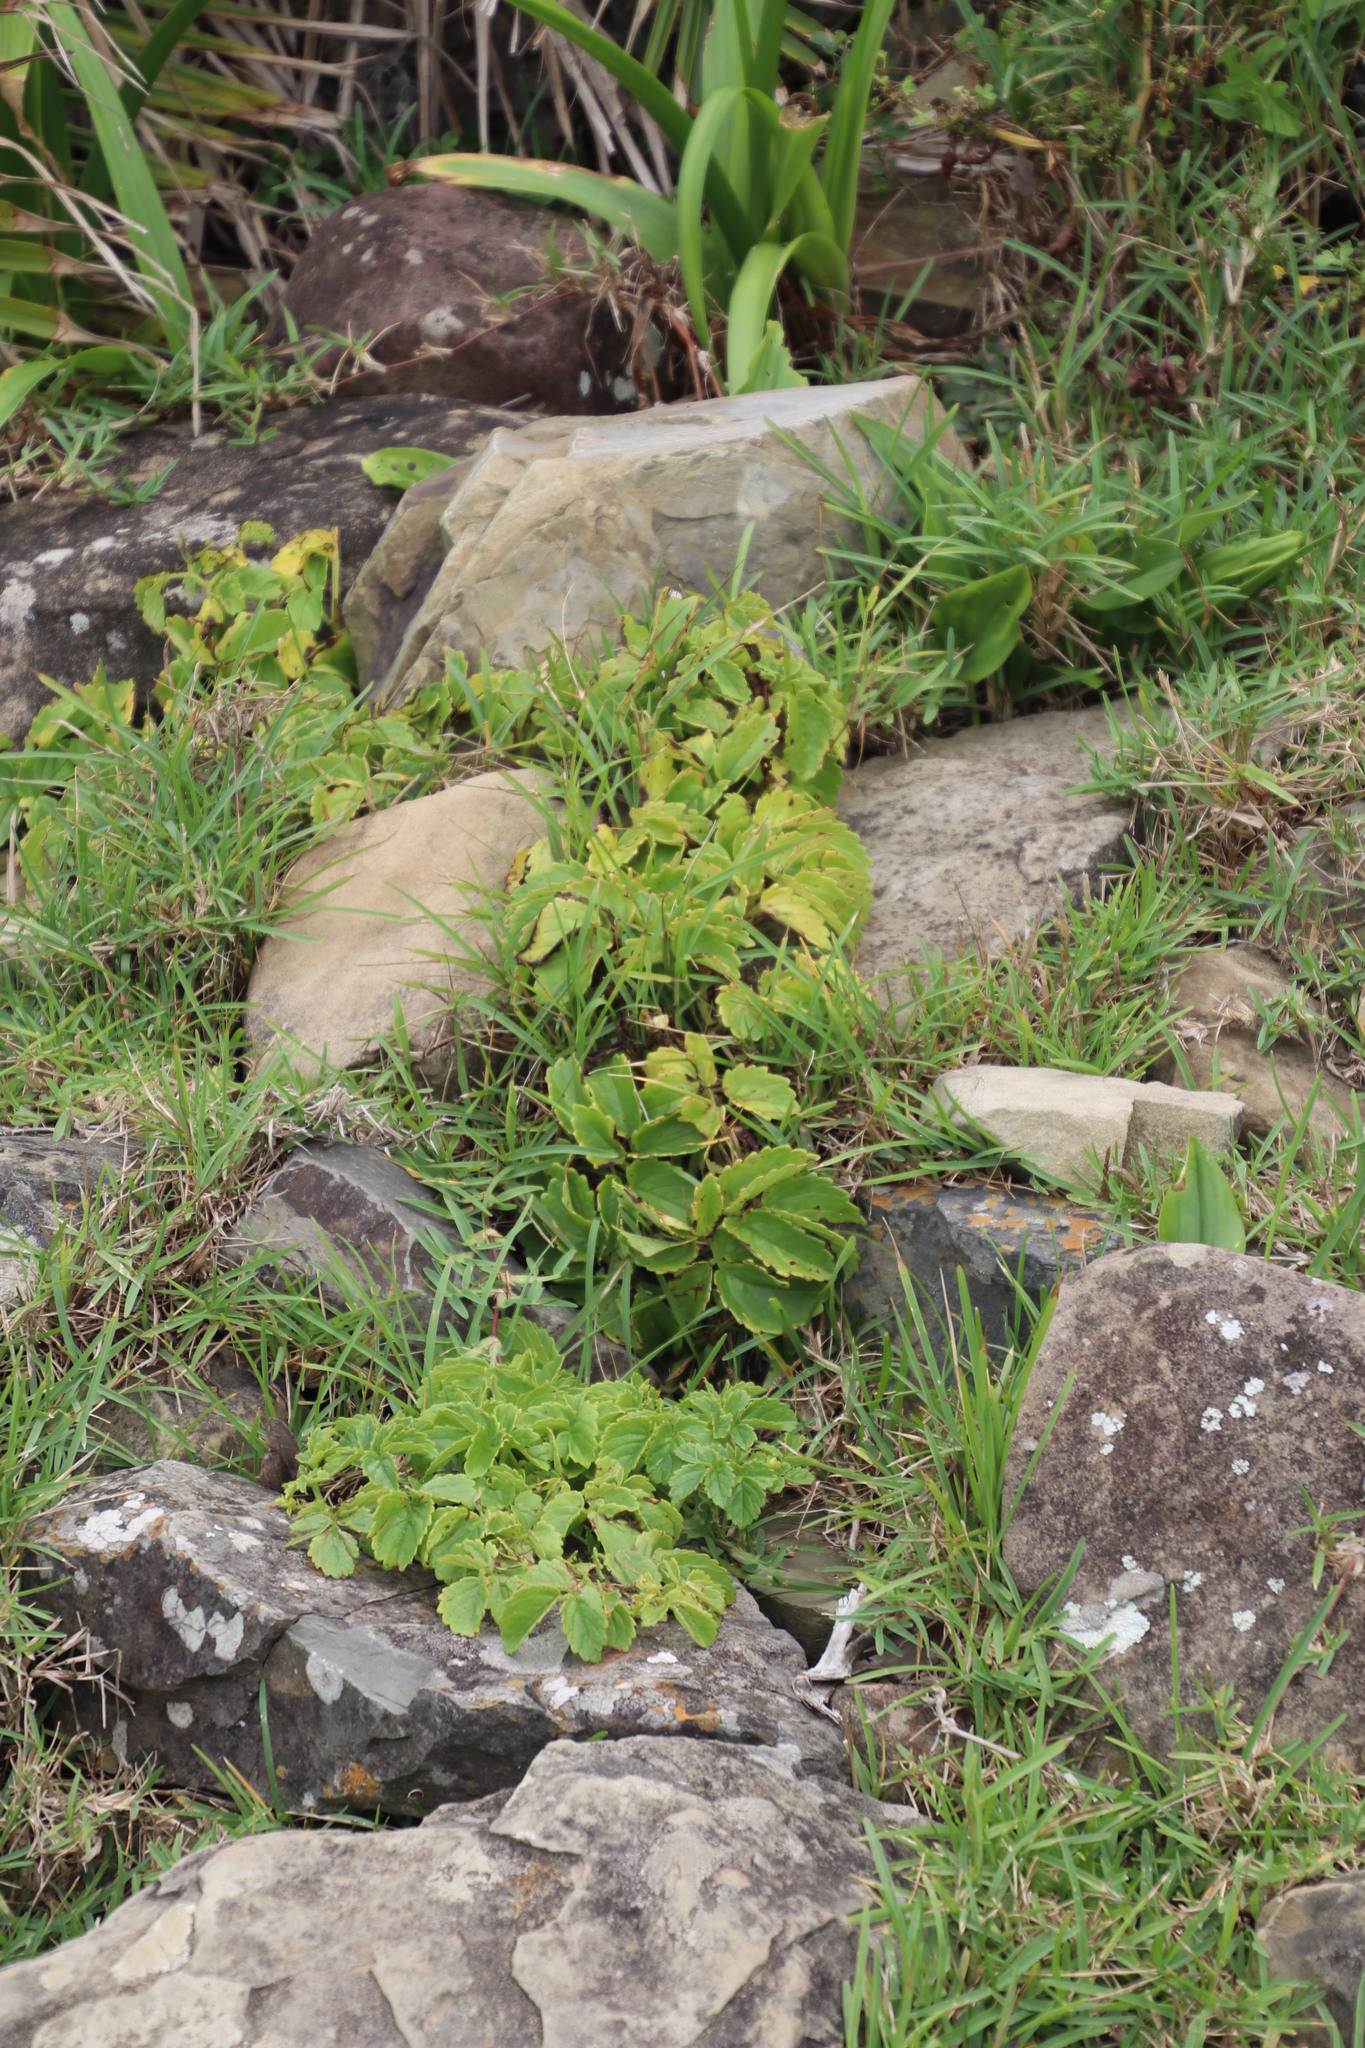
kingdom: Plantae
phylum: Tracheophyta
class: Magnoliopsida
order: Vitales
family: Vitaceae
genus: Cyphostemma
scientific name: Cyphostemma natalitium
